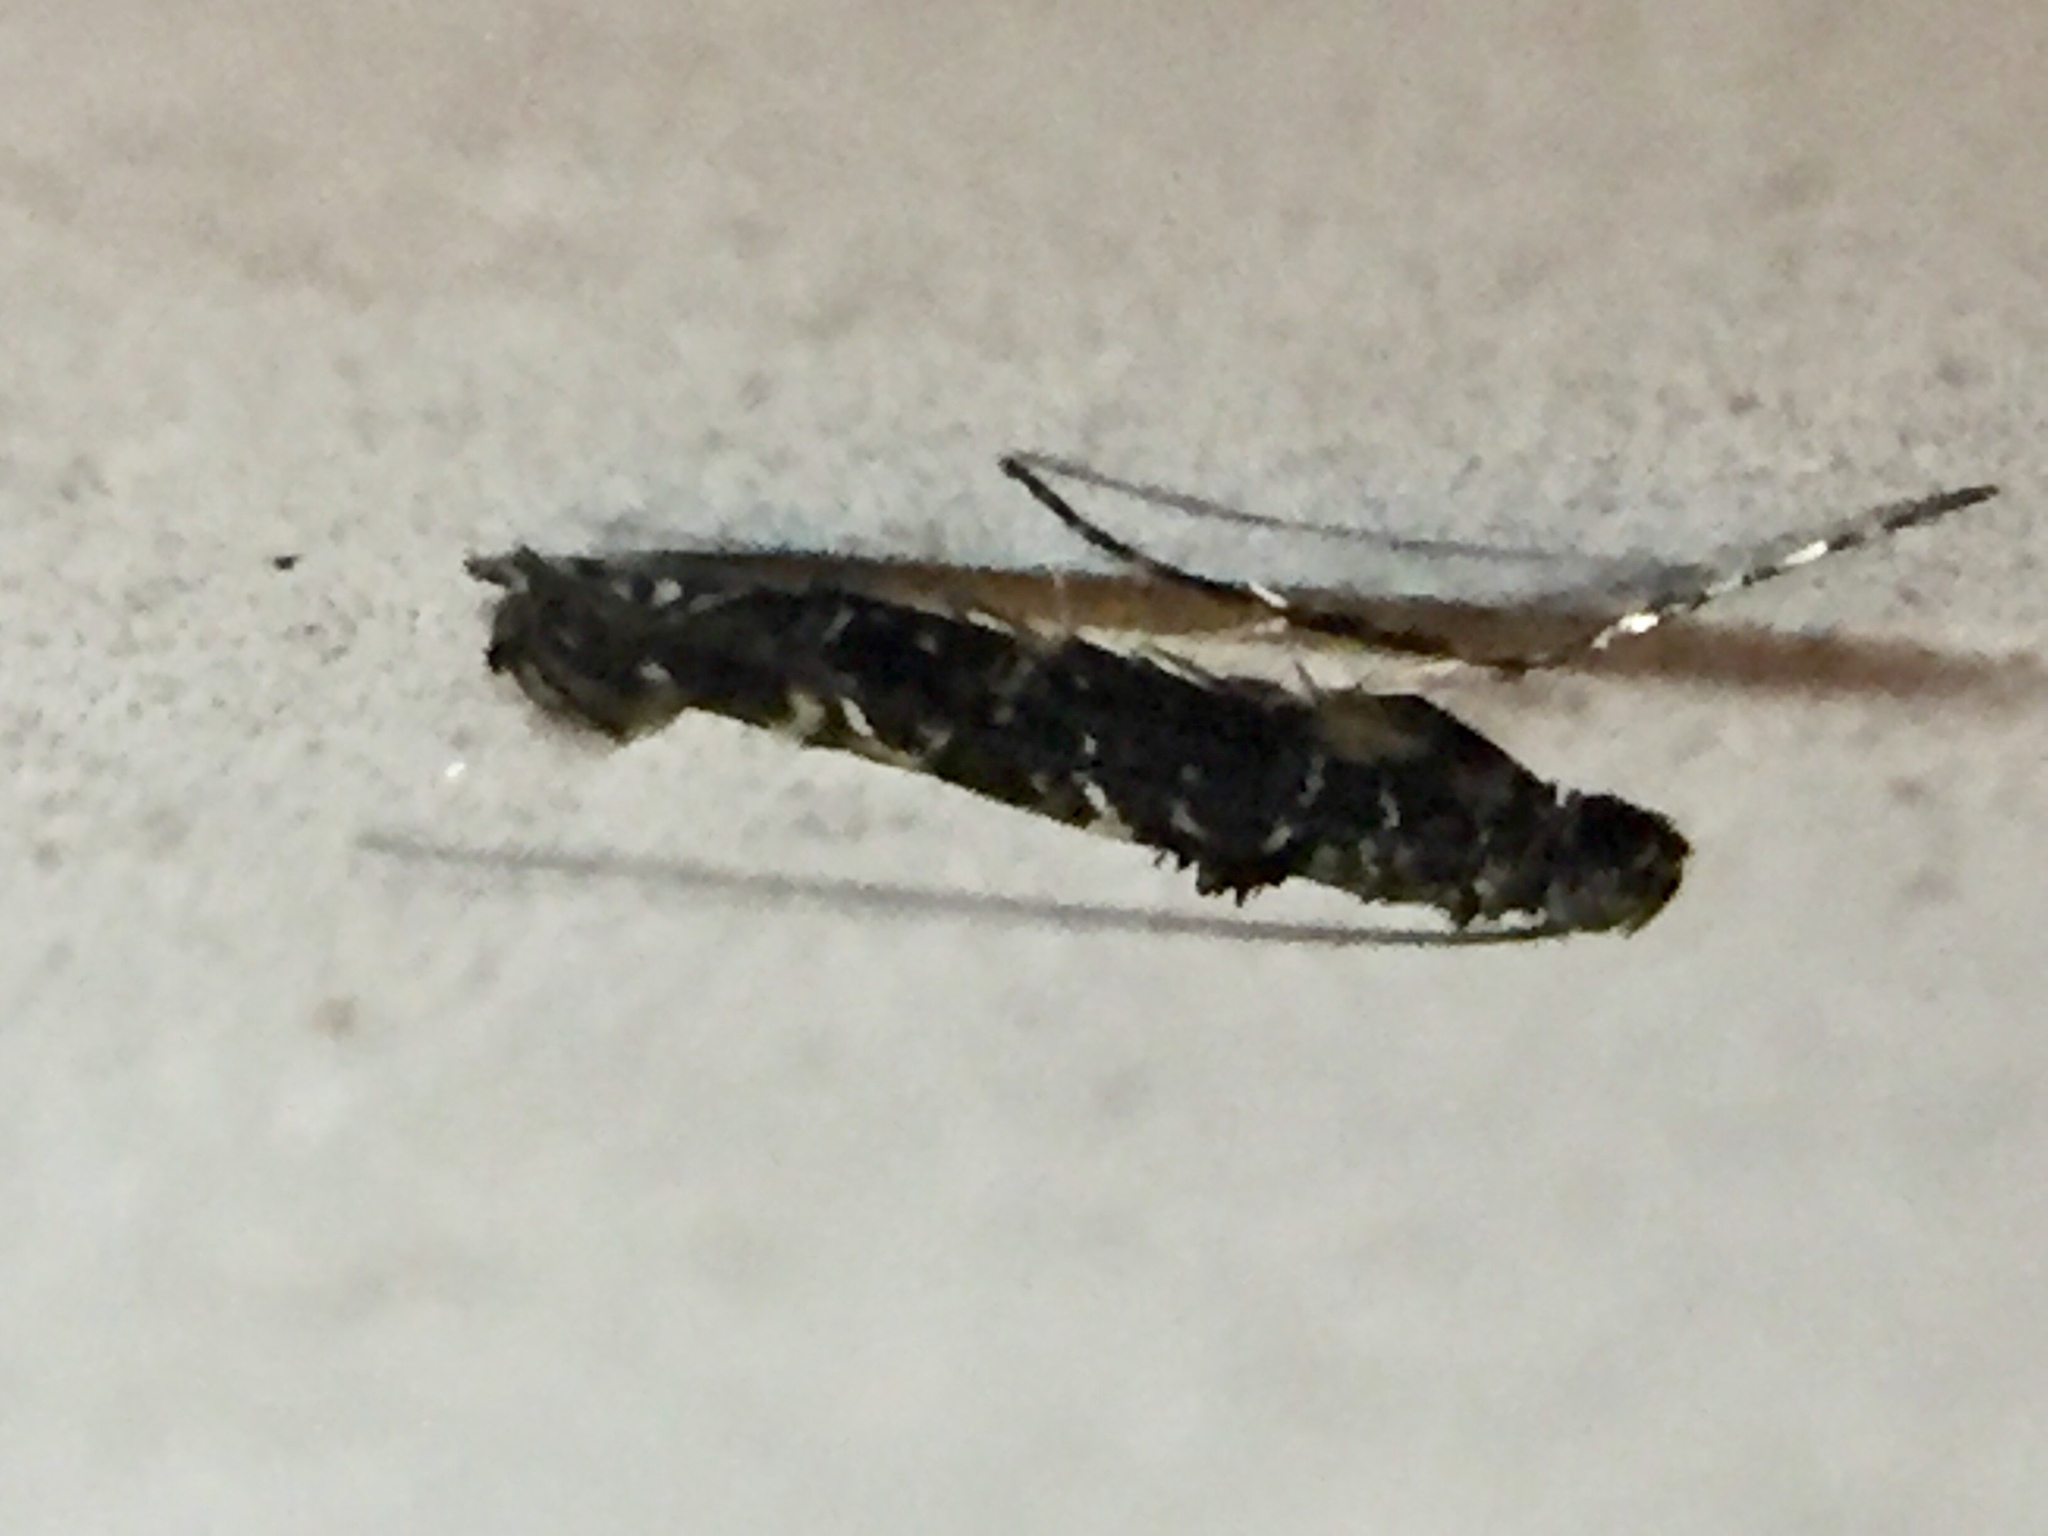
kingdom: Animalia
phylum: Arthropoda
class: Insecta
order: Lepidoptera
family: Gracillariidae
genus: Conopomorpha
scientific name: Conopomorpha cyanospila
